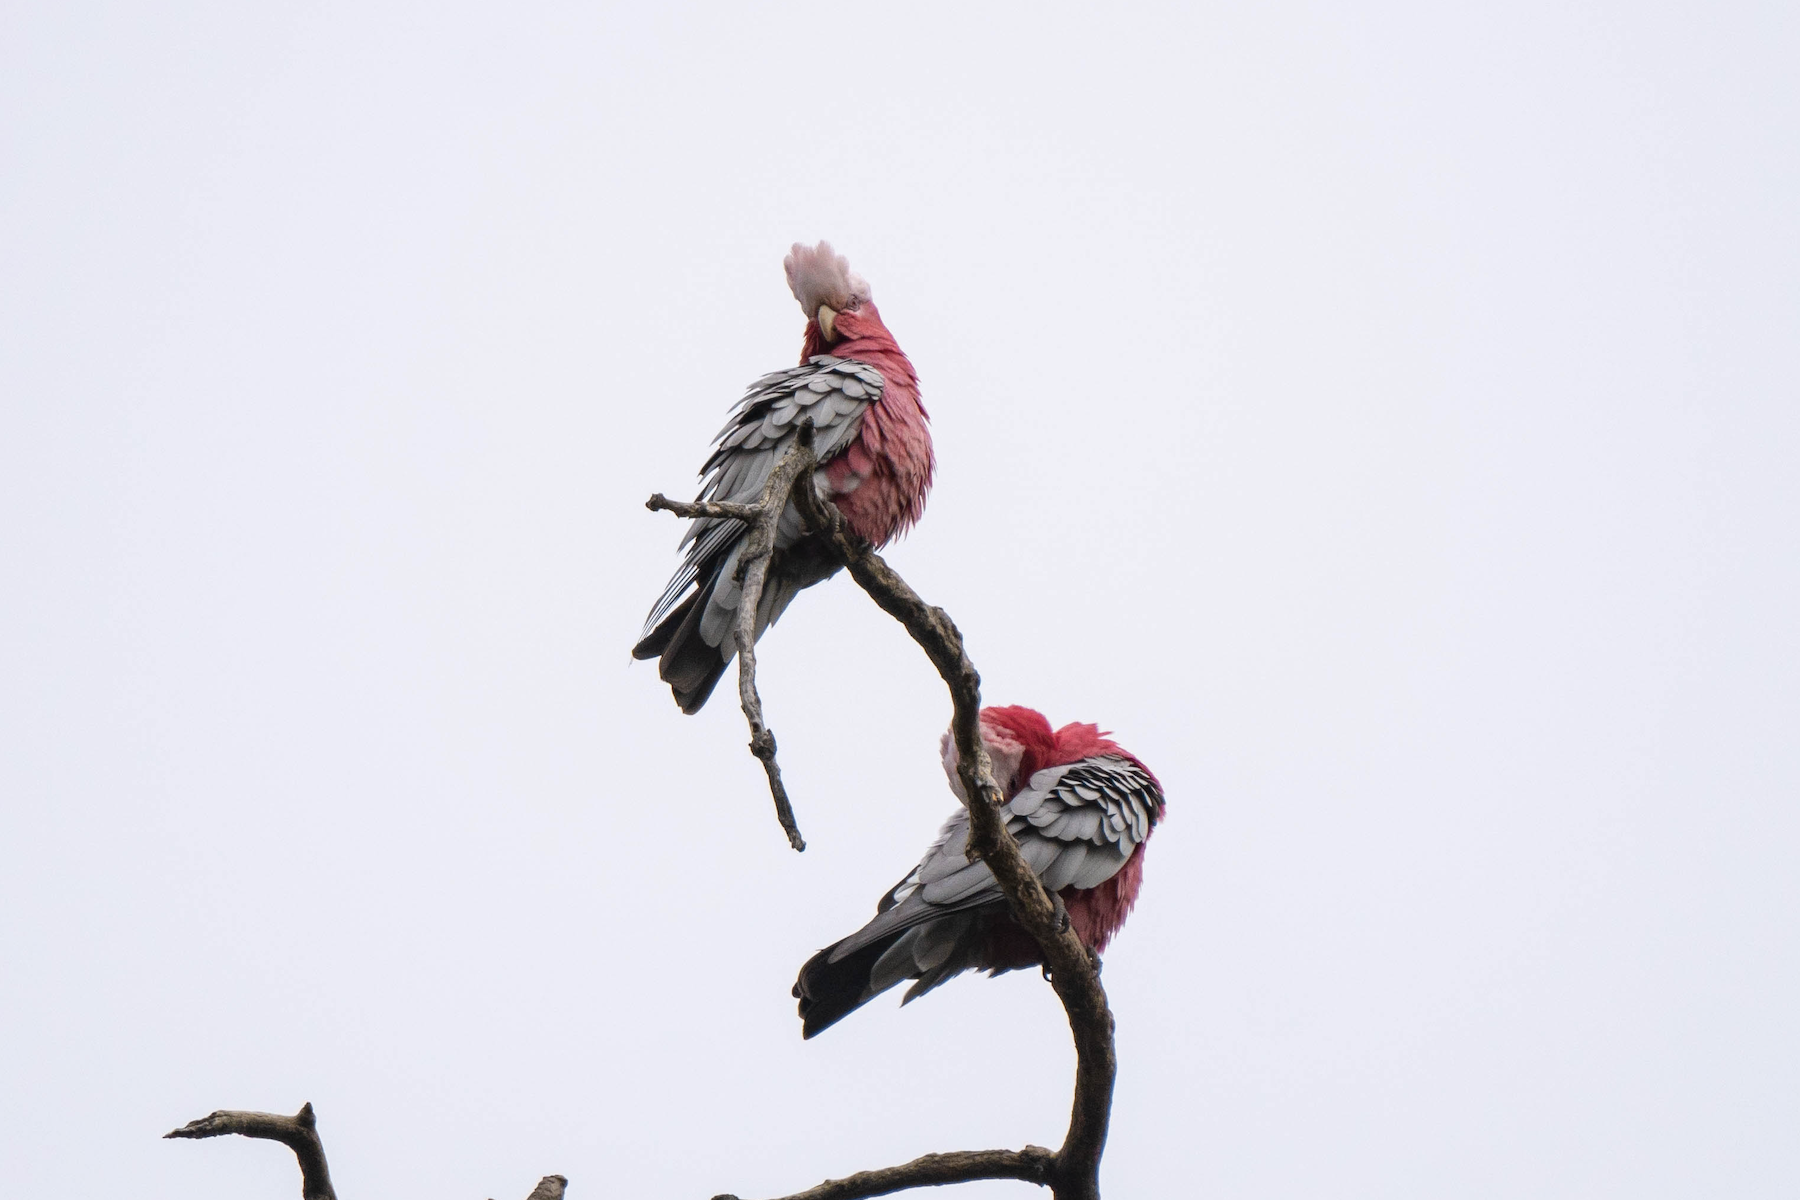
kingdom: Animalia
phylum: Chordata
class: Aves
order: Psittaciformes
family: Psittacidae
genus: Eolophus
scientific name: Eolophus roseicapilla
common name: Galah
